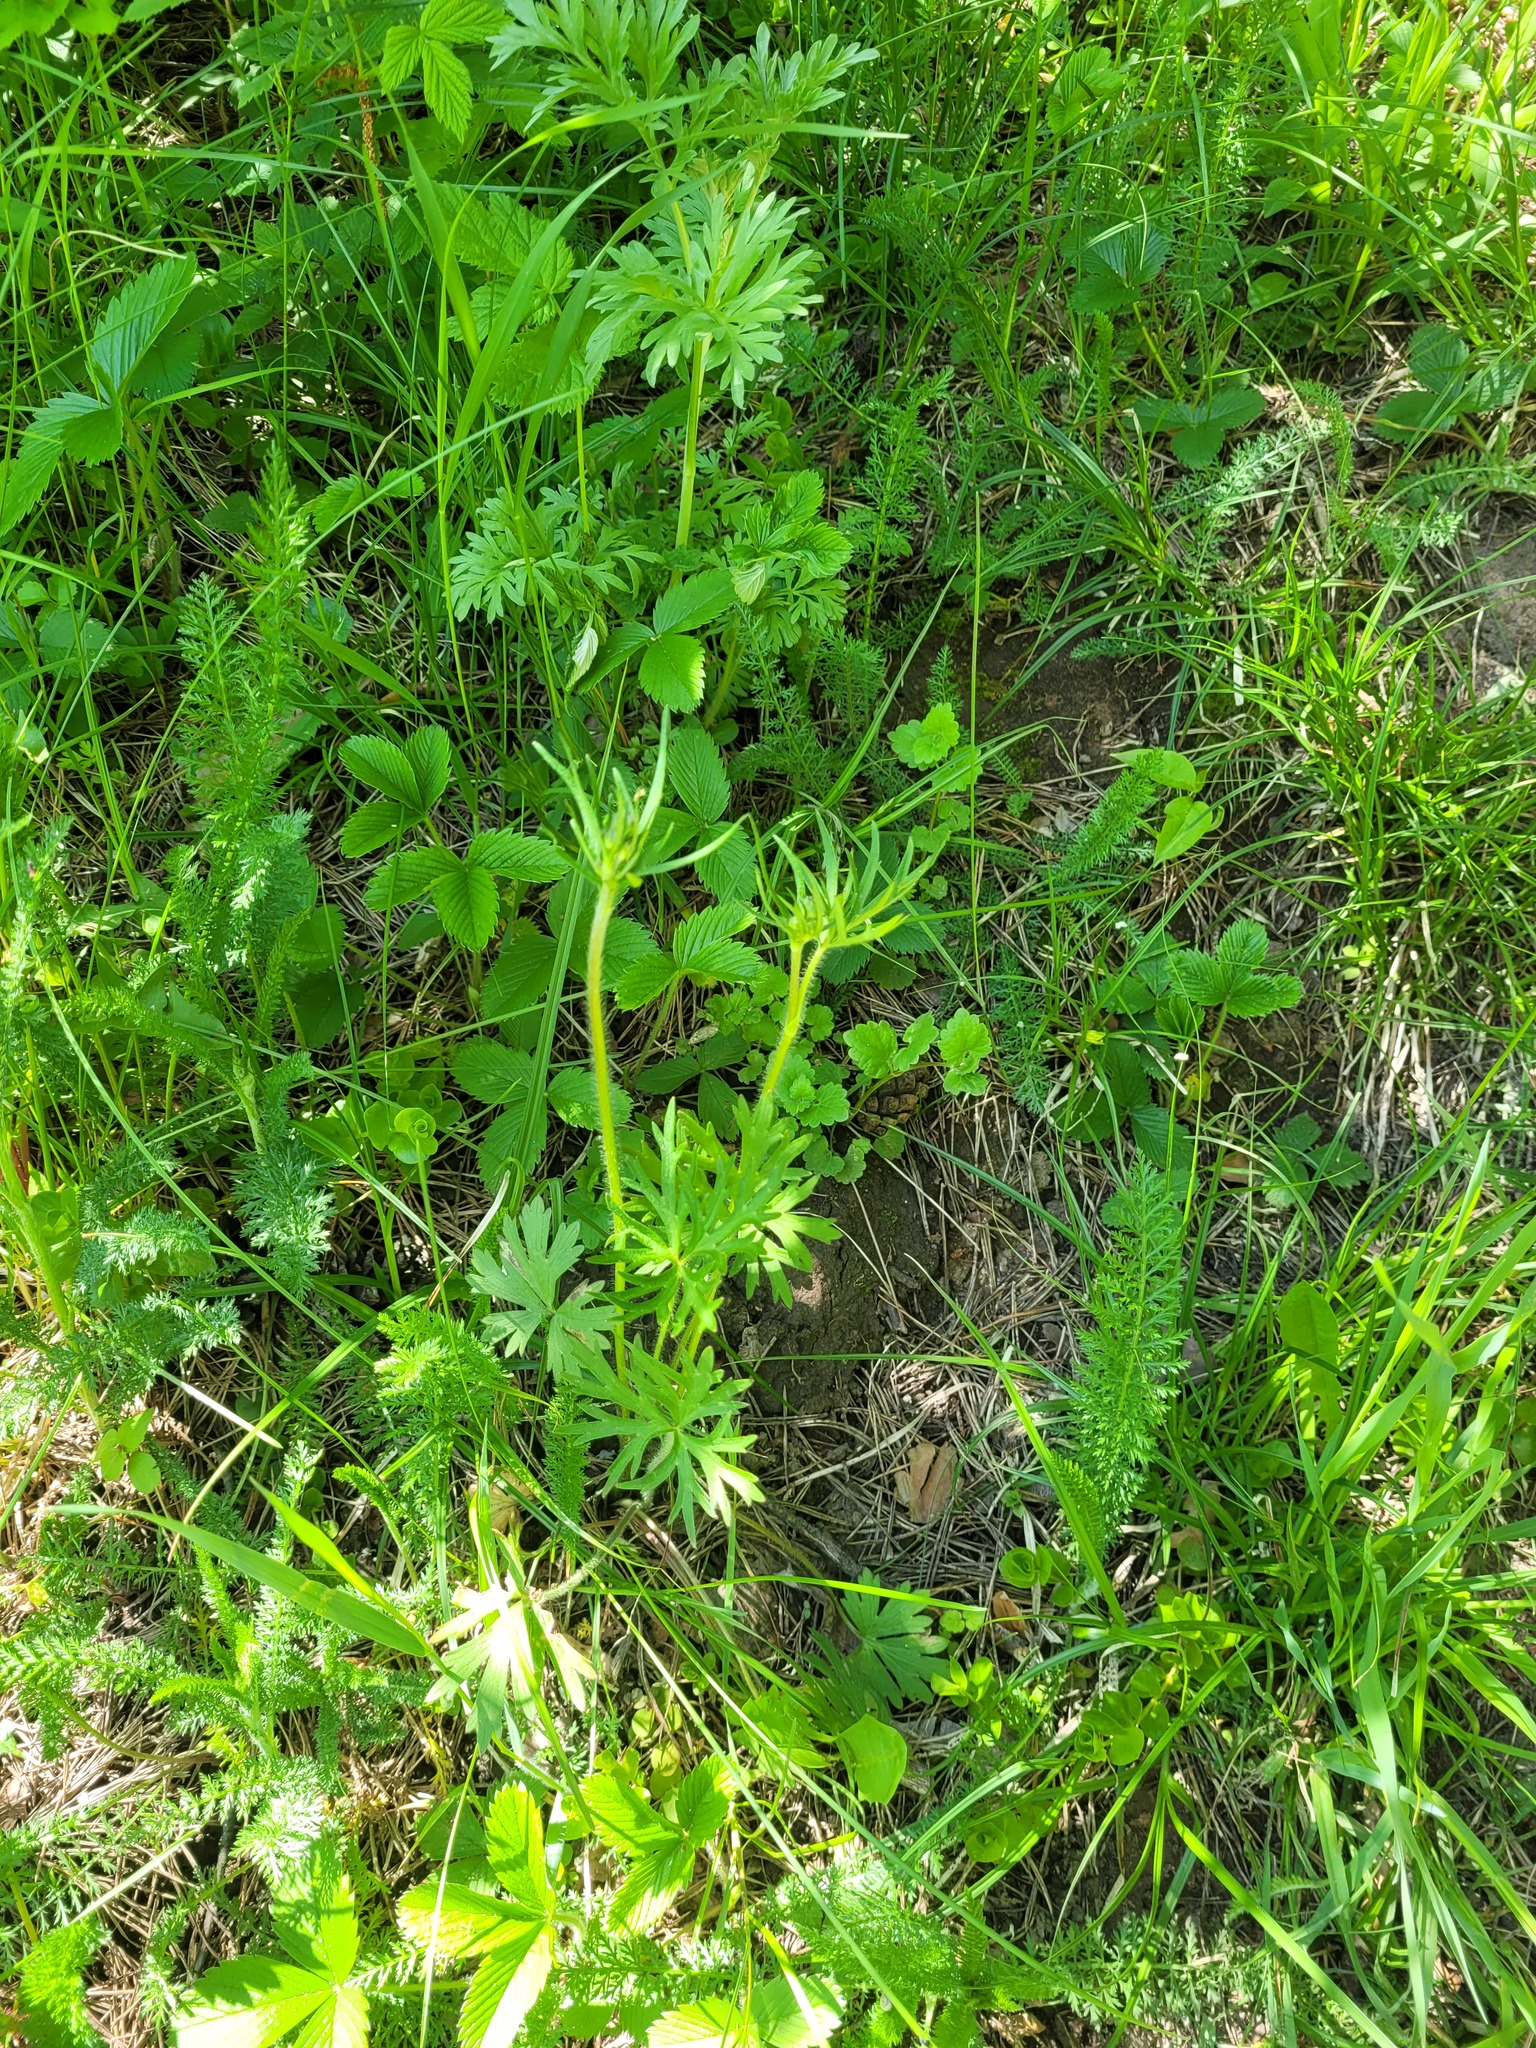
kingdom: Plantae
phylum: Tracheophyta
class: Magnoliopsida
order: Ranunculales
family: Ranunculaceae
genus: Ranunculus
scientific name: Ranunculus polyanthemos
